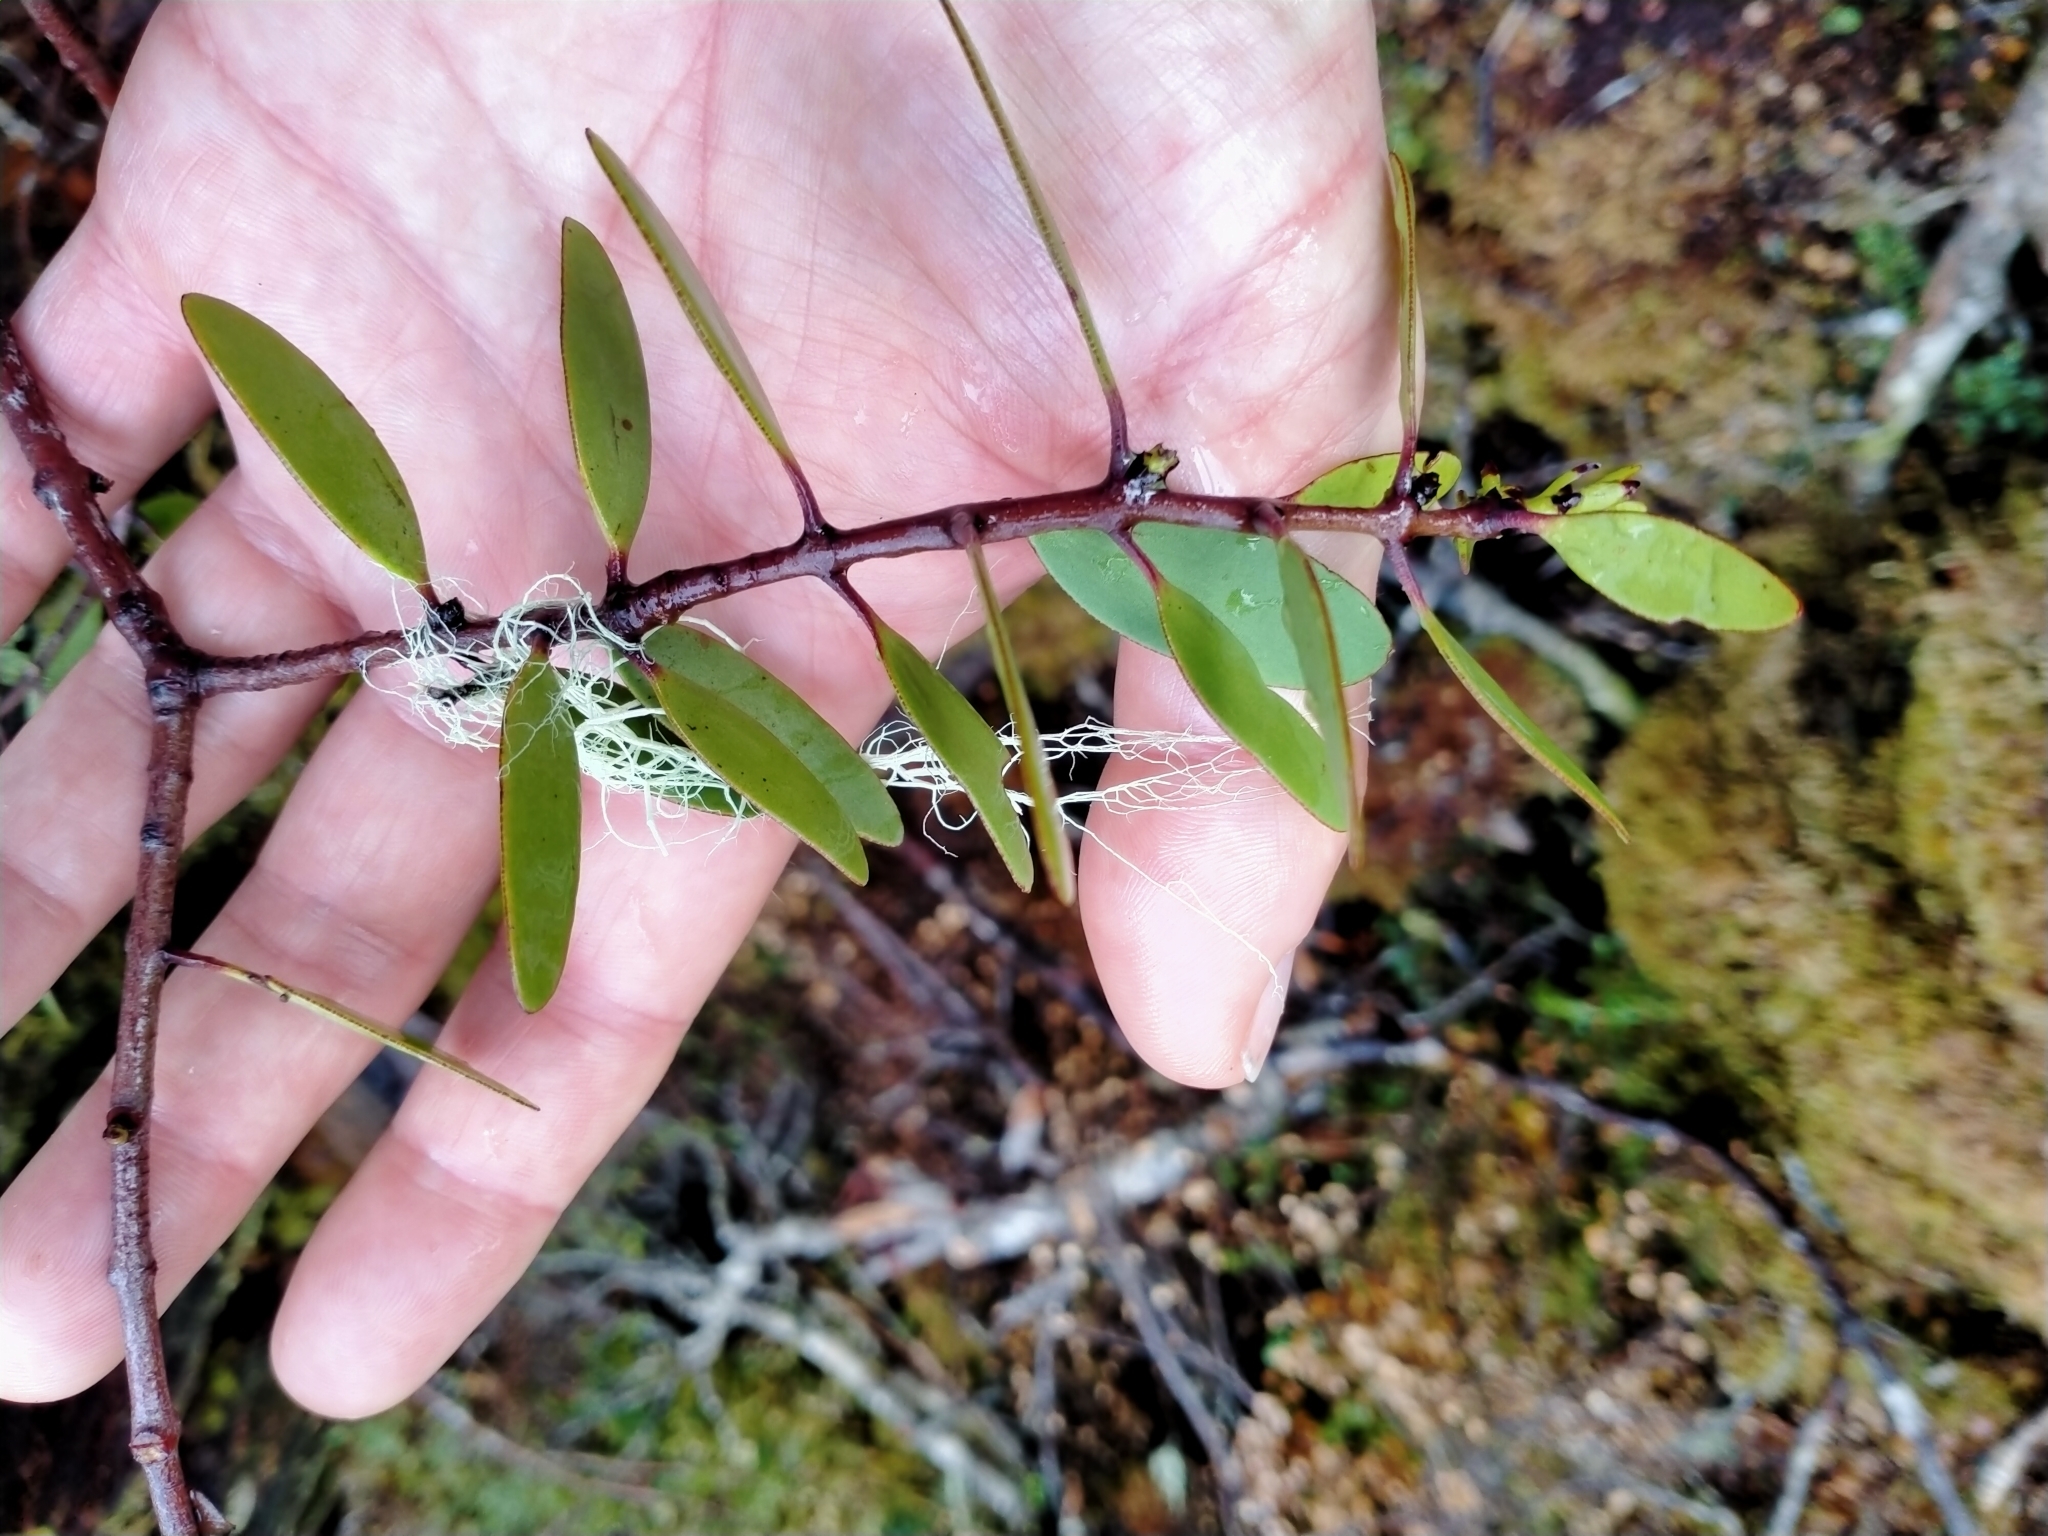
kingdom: Plantae
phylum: Tracheophyta
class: Magnoliopsida
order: Santalales
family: Loranthaceae
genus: Alepis
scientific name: Alepis flavida
